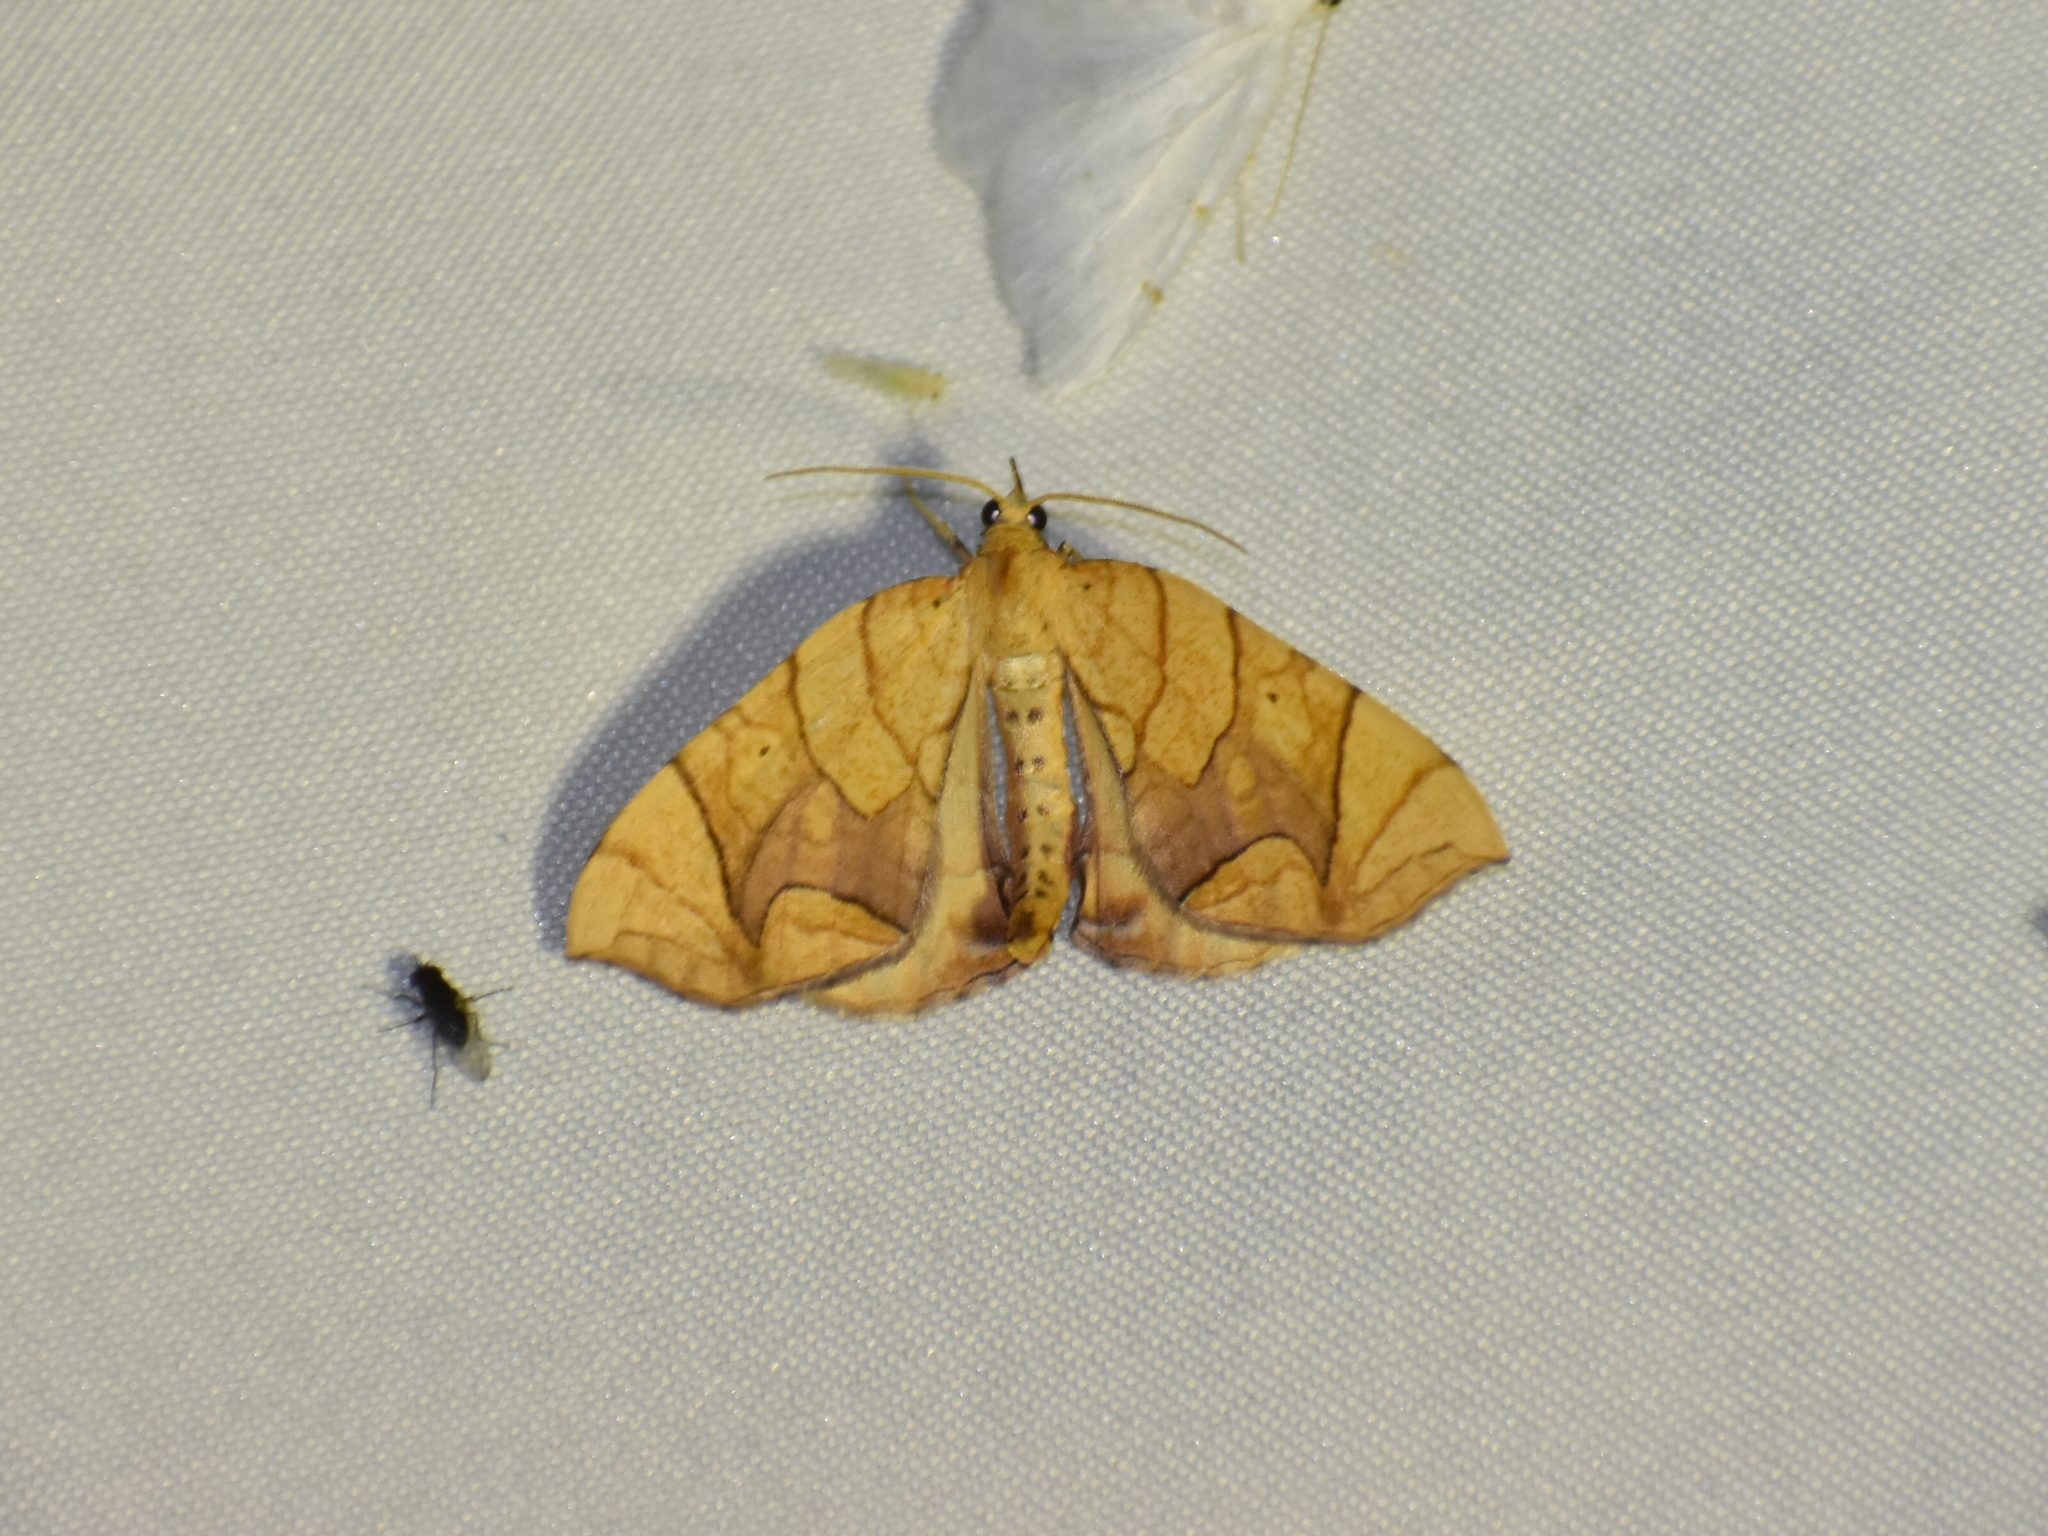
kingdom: Animalia
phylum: Arthropoda
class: Insecta
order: Lepidoptera
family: Geometridae
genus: Eulithis
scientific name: Eulithis
